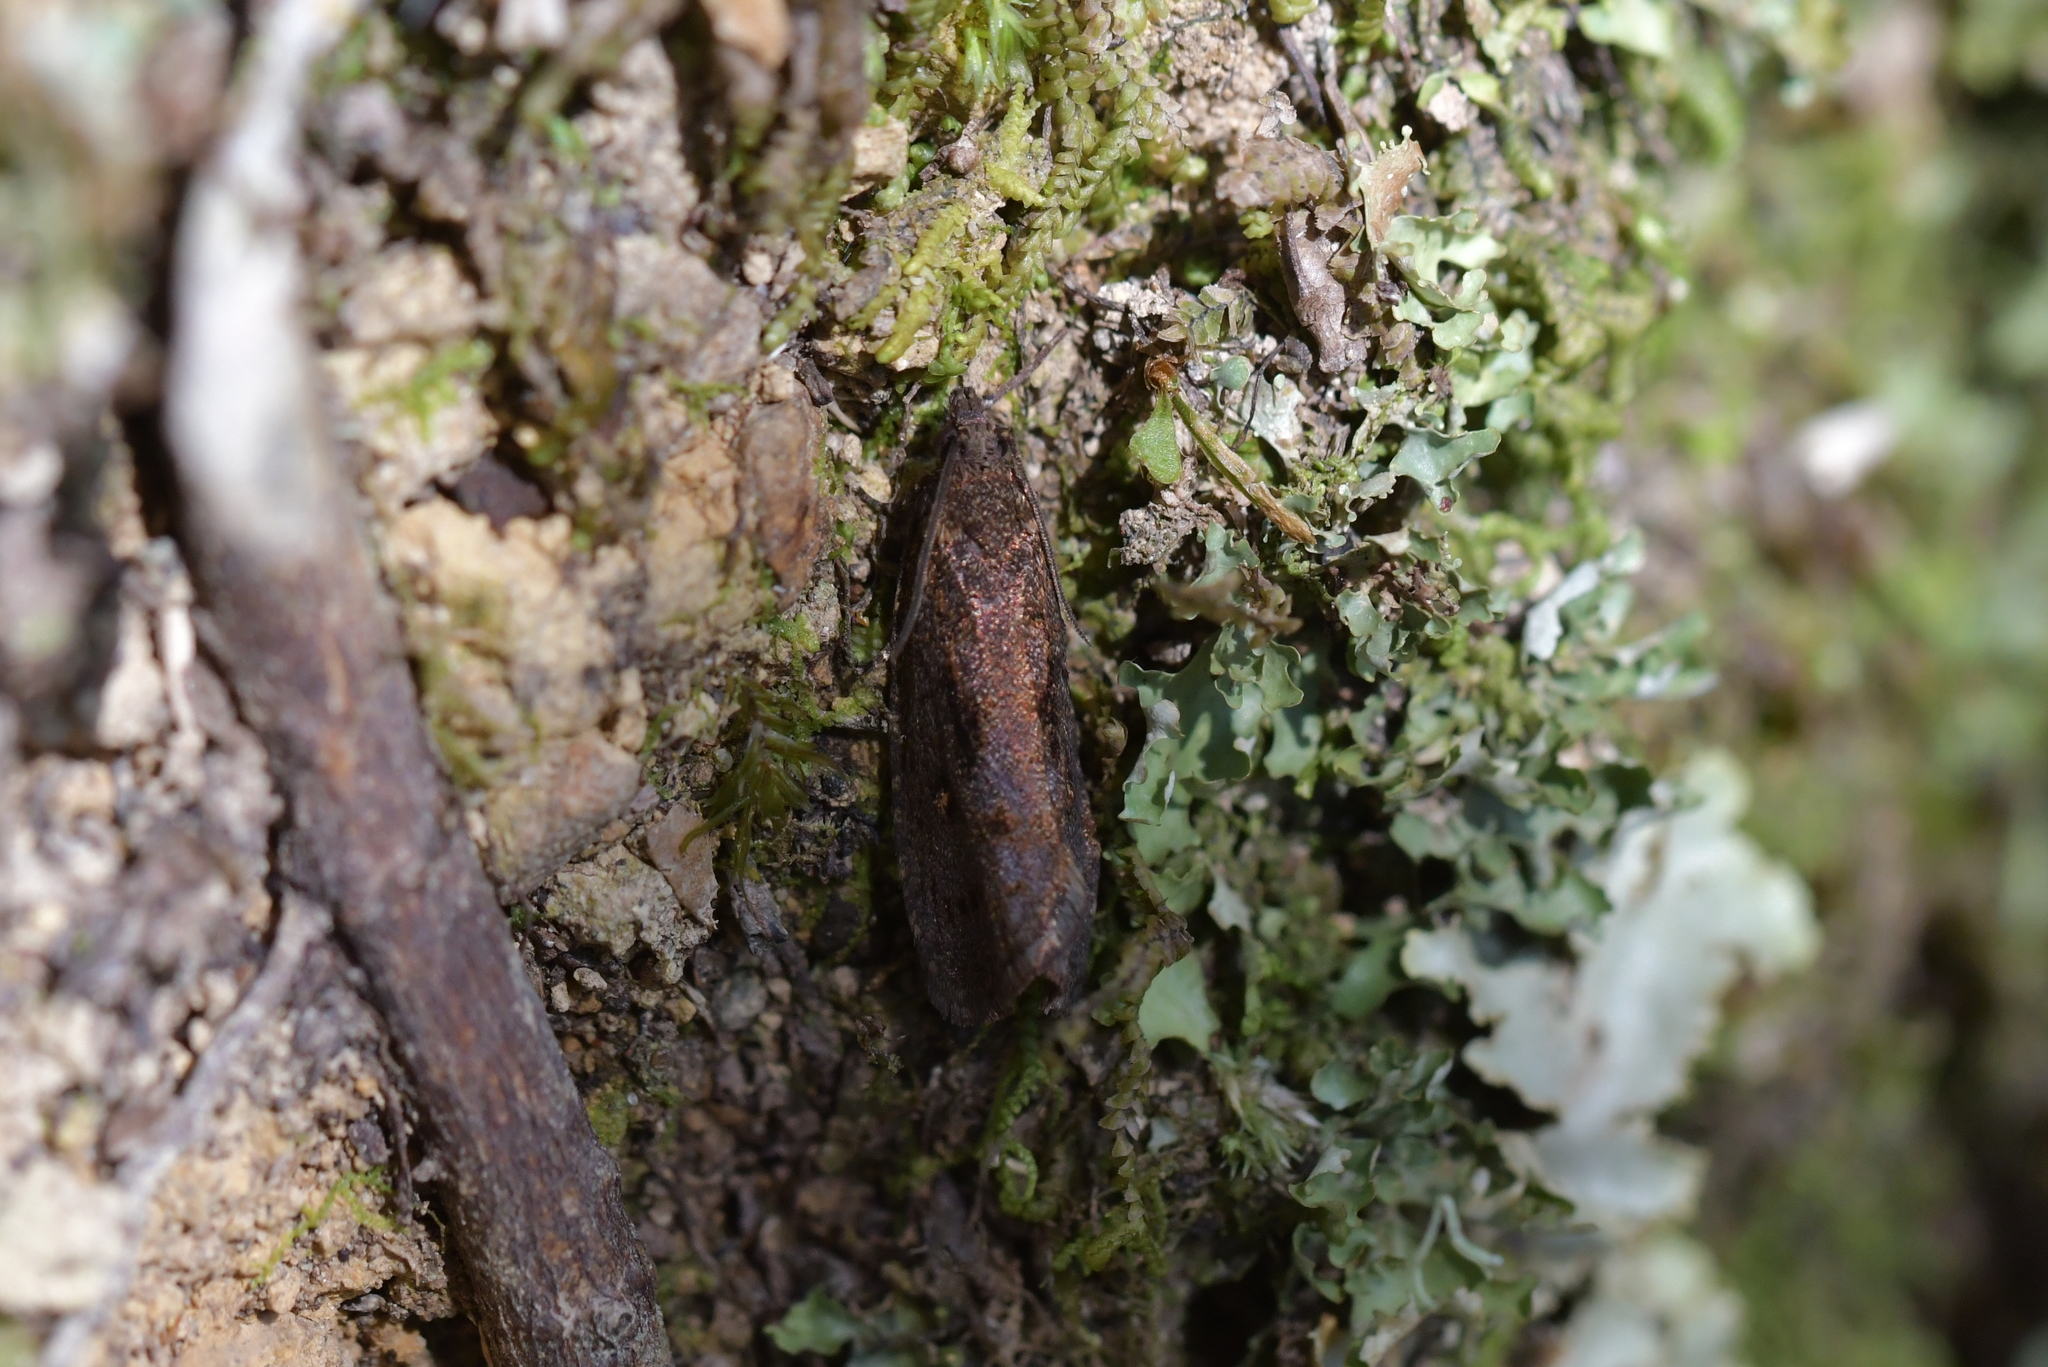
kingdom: Animalia
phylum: Arthropoda
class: Insecta
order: Lepidoptera
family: Tortricidae
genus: Cryptaspasma
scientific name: Cryptaspasma querula
